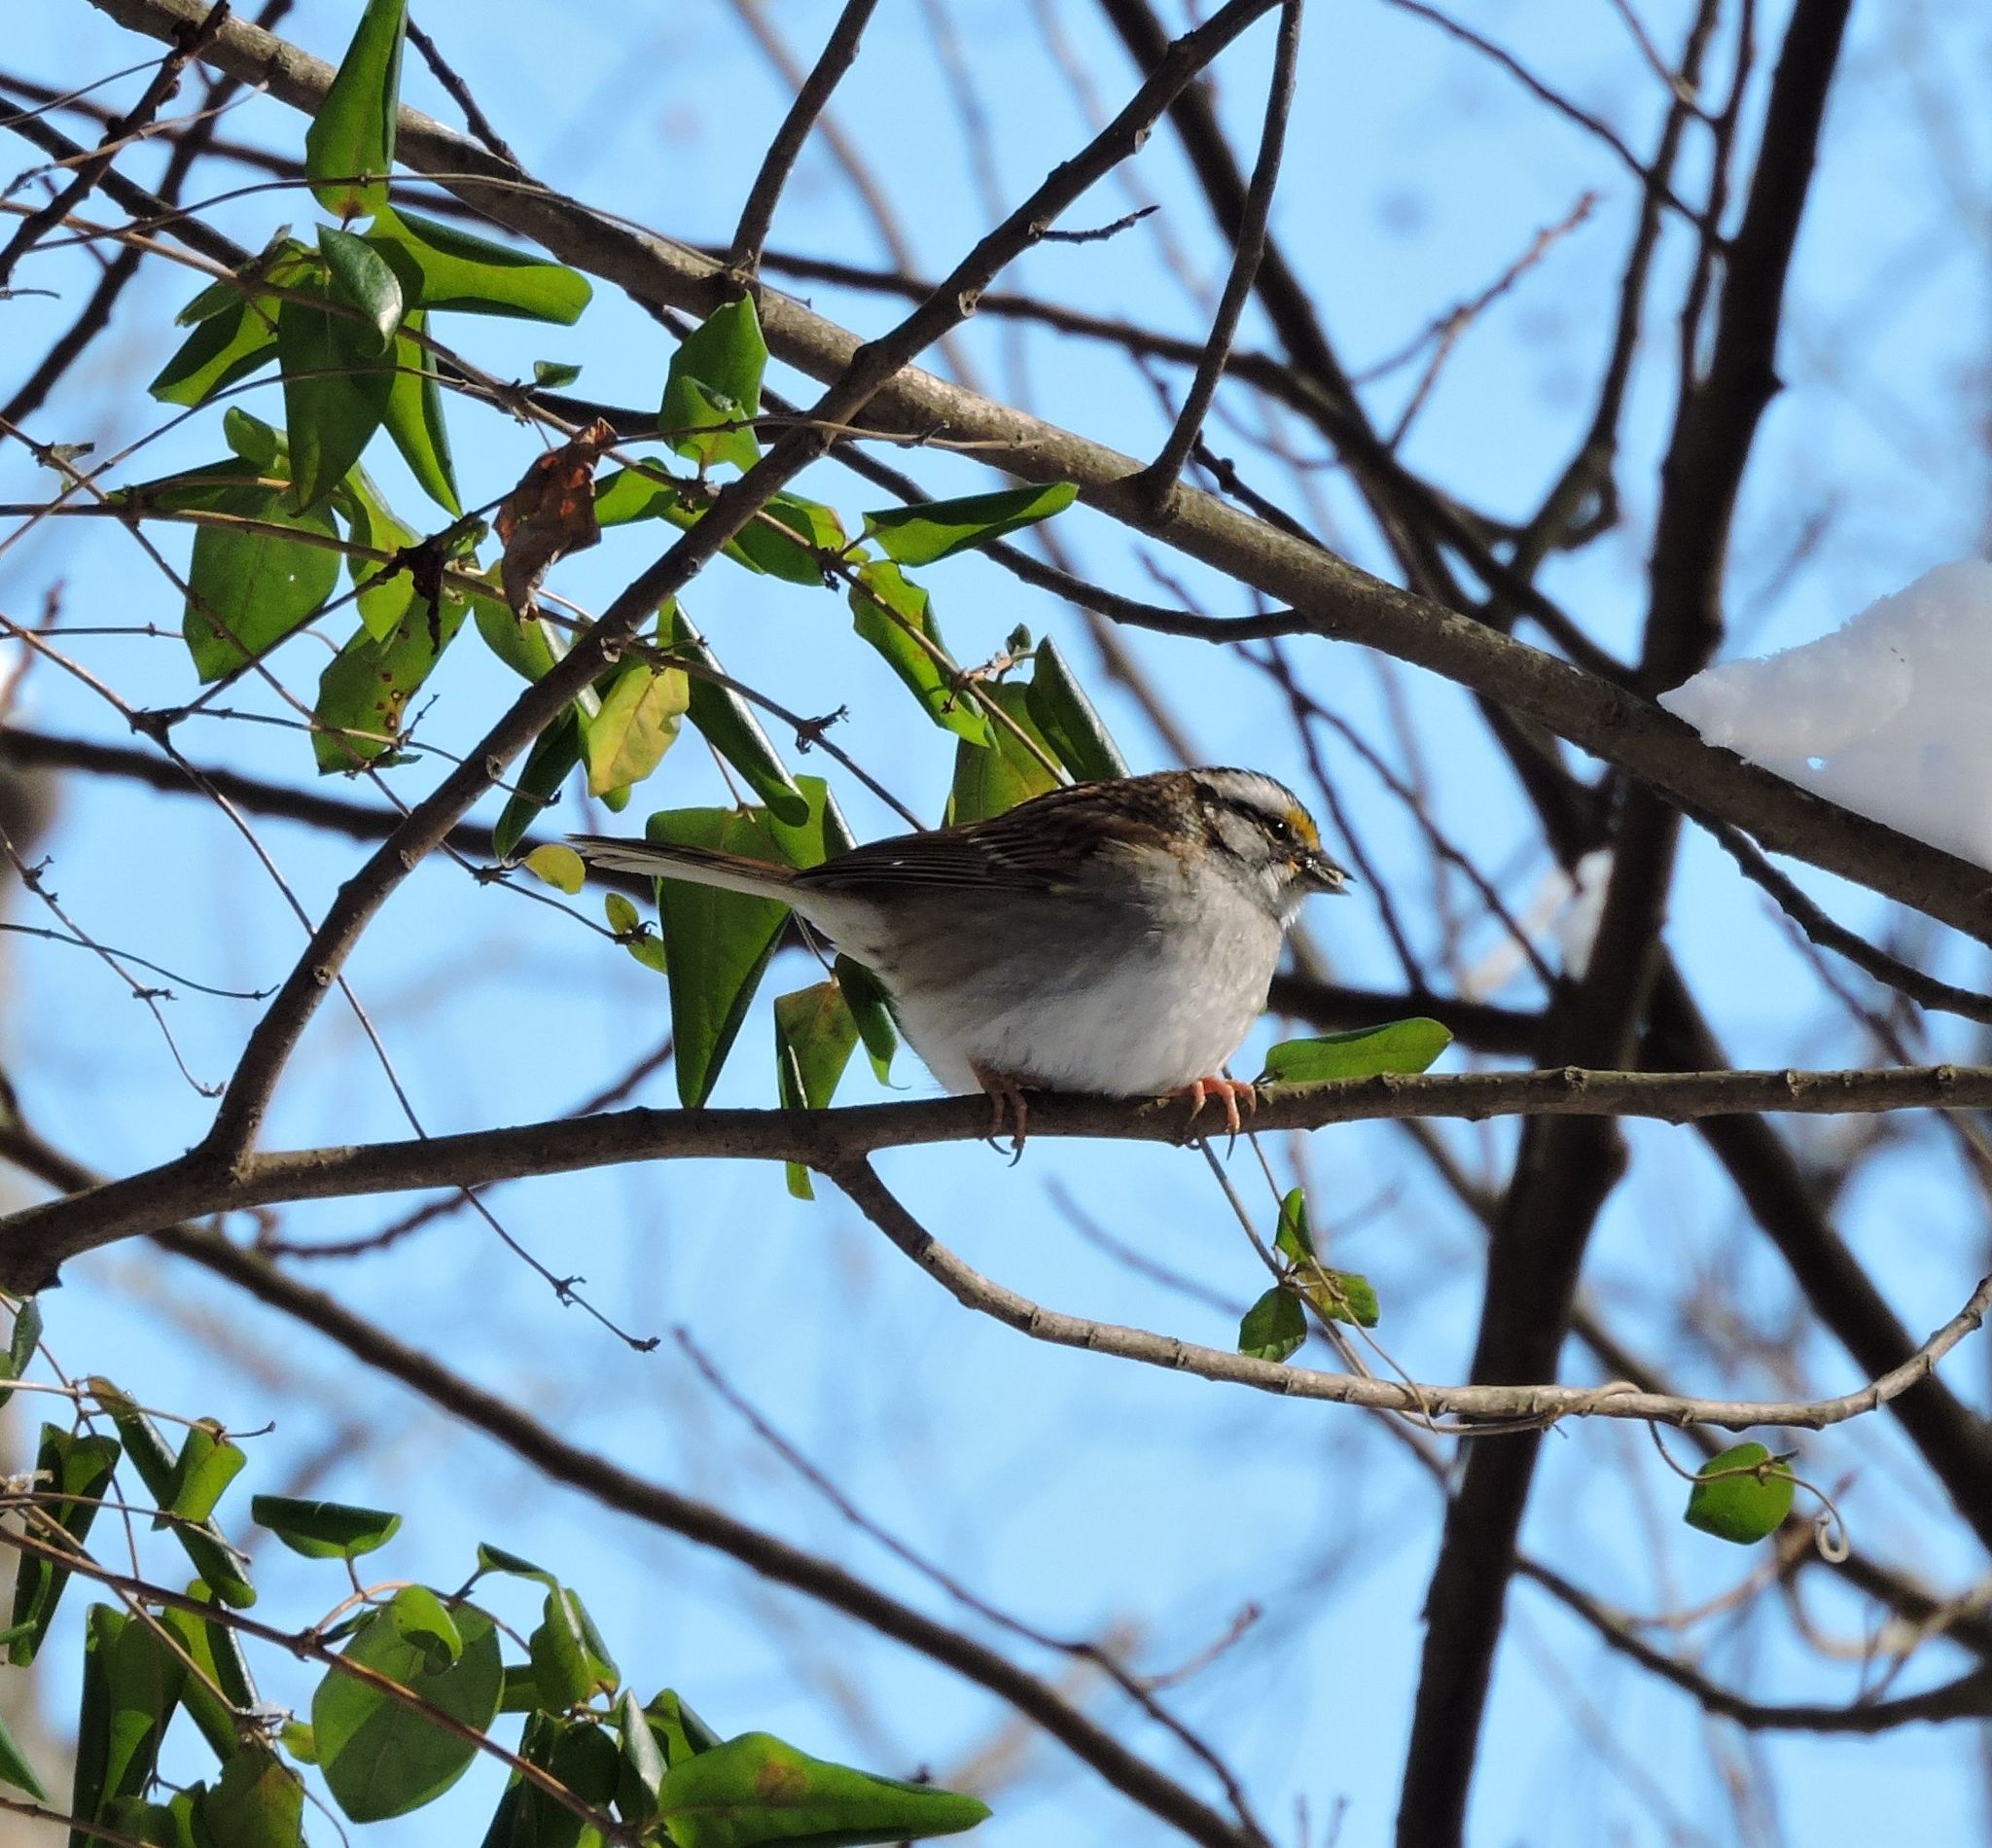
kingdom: Animalia
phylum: Chordata
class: Aves
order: Passeriformes
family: Passerellidae
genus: Zonotrichia
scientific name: Zonotrichia albicollis
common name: White-throated sparrow
